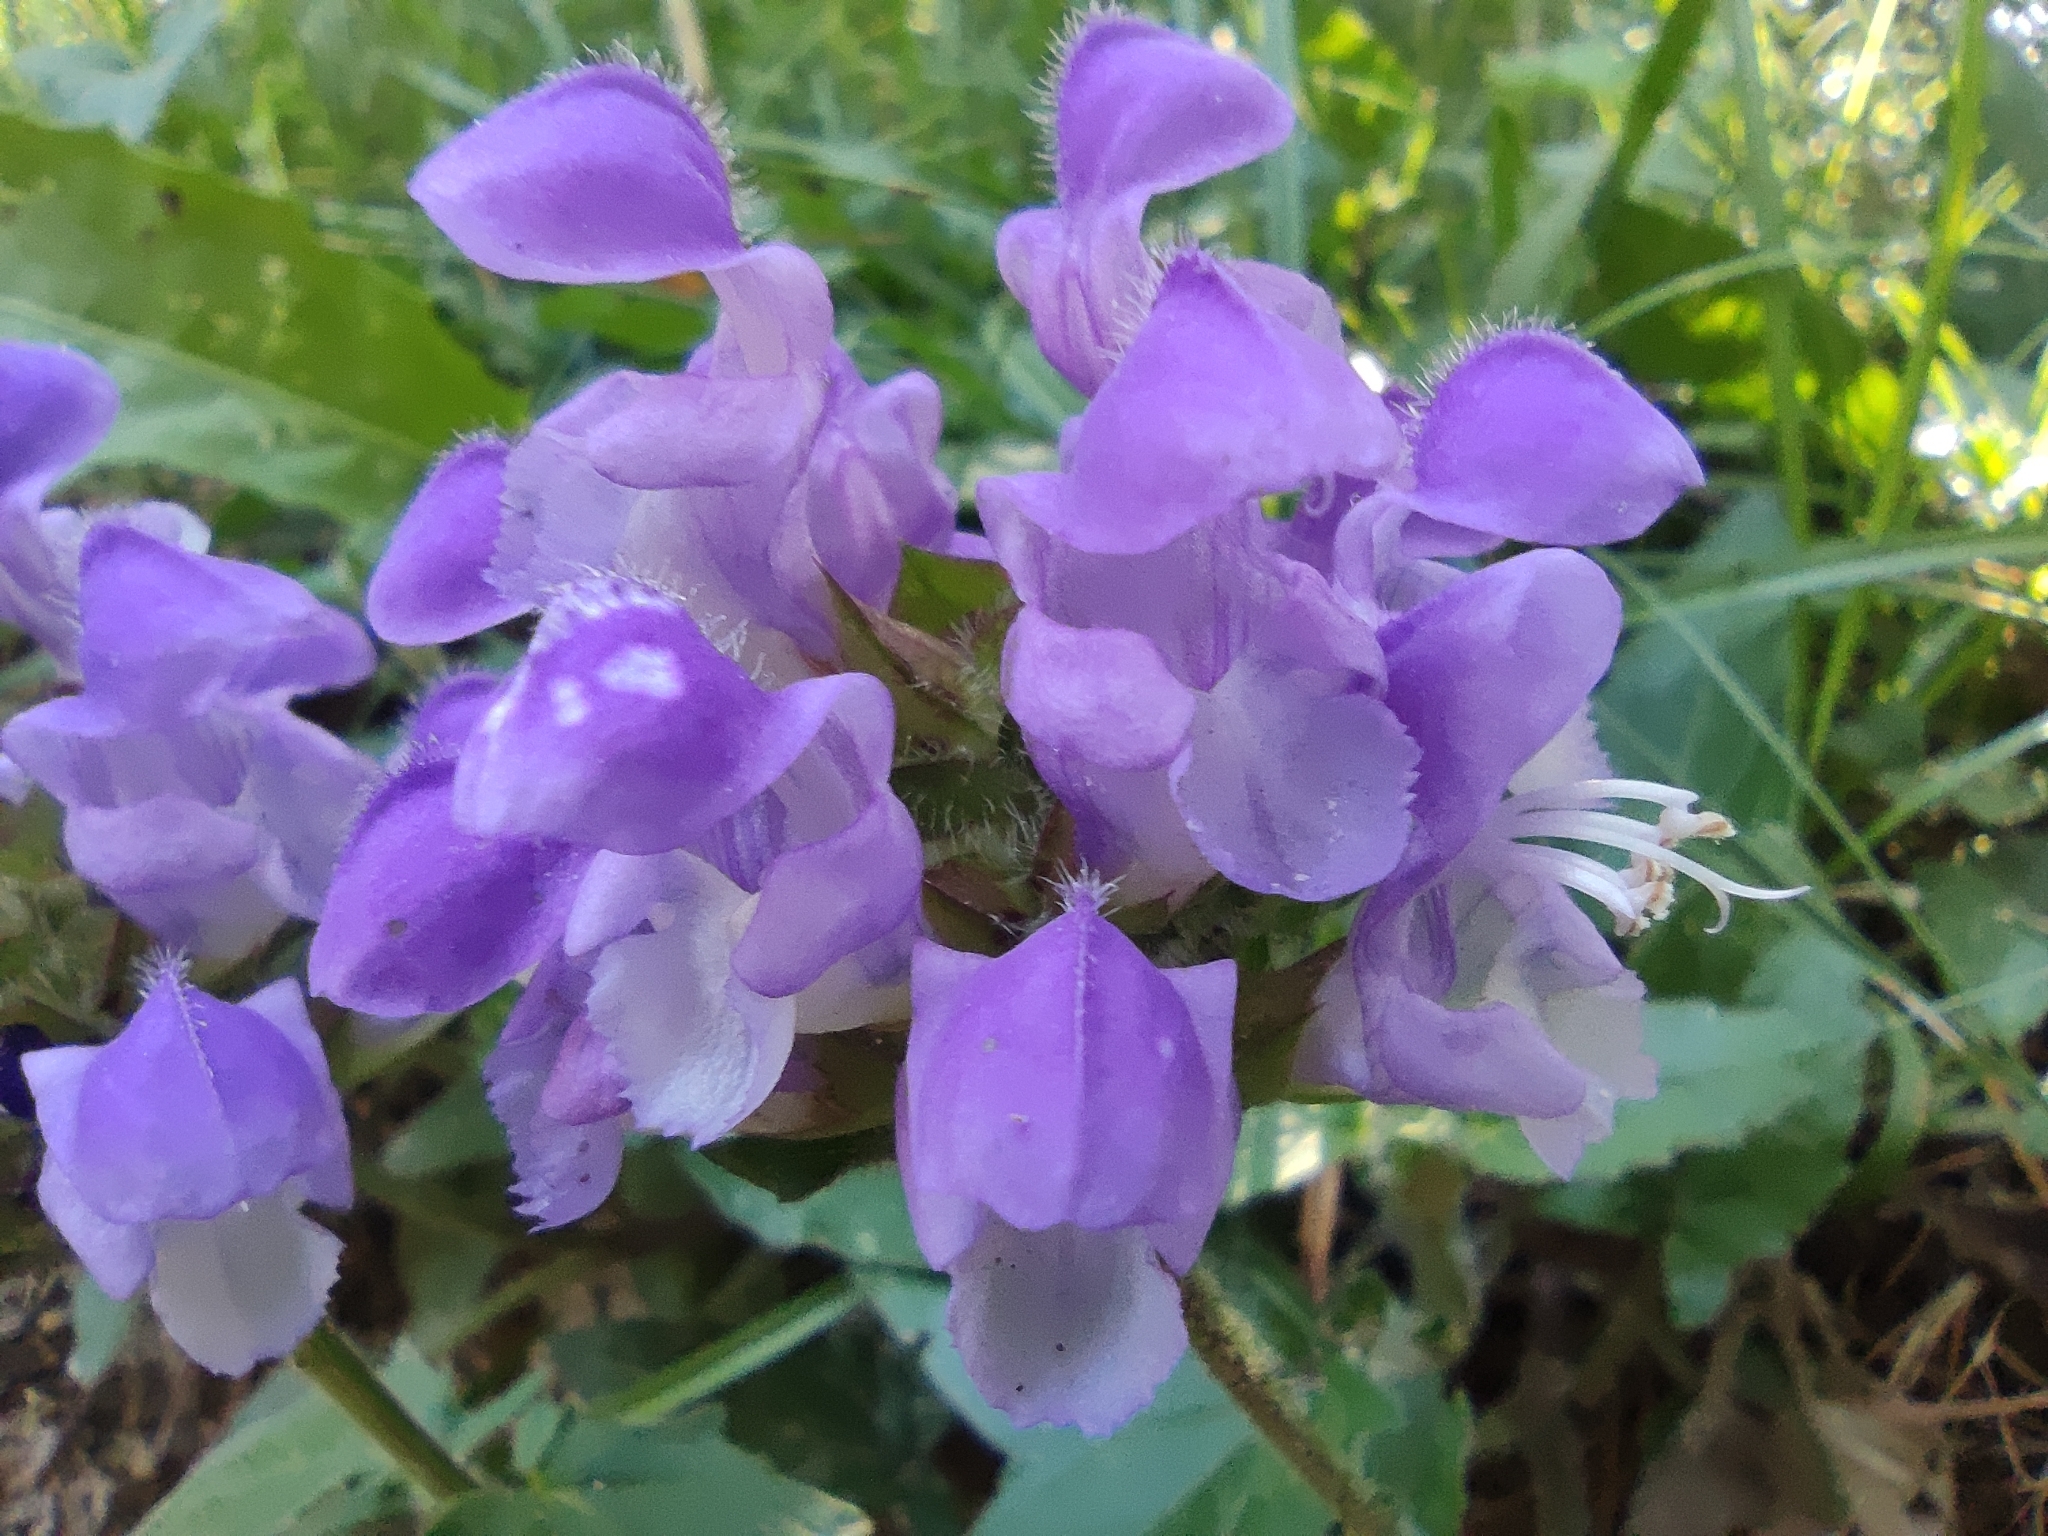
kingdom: Plantae
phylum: Tracheophyta
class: Magnoliopsida
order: Lamiales
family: Lamiaceae
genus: Prunella
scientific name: Prunella grandiflora
